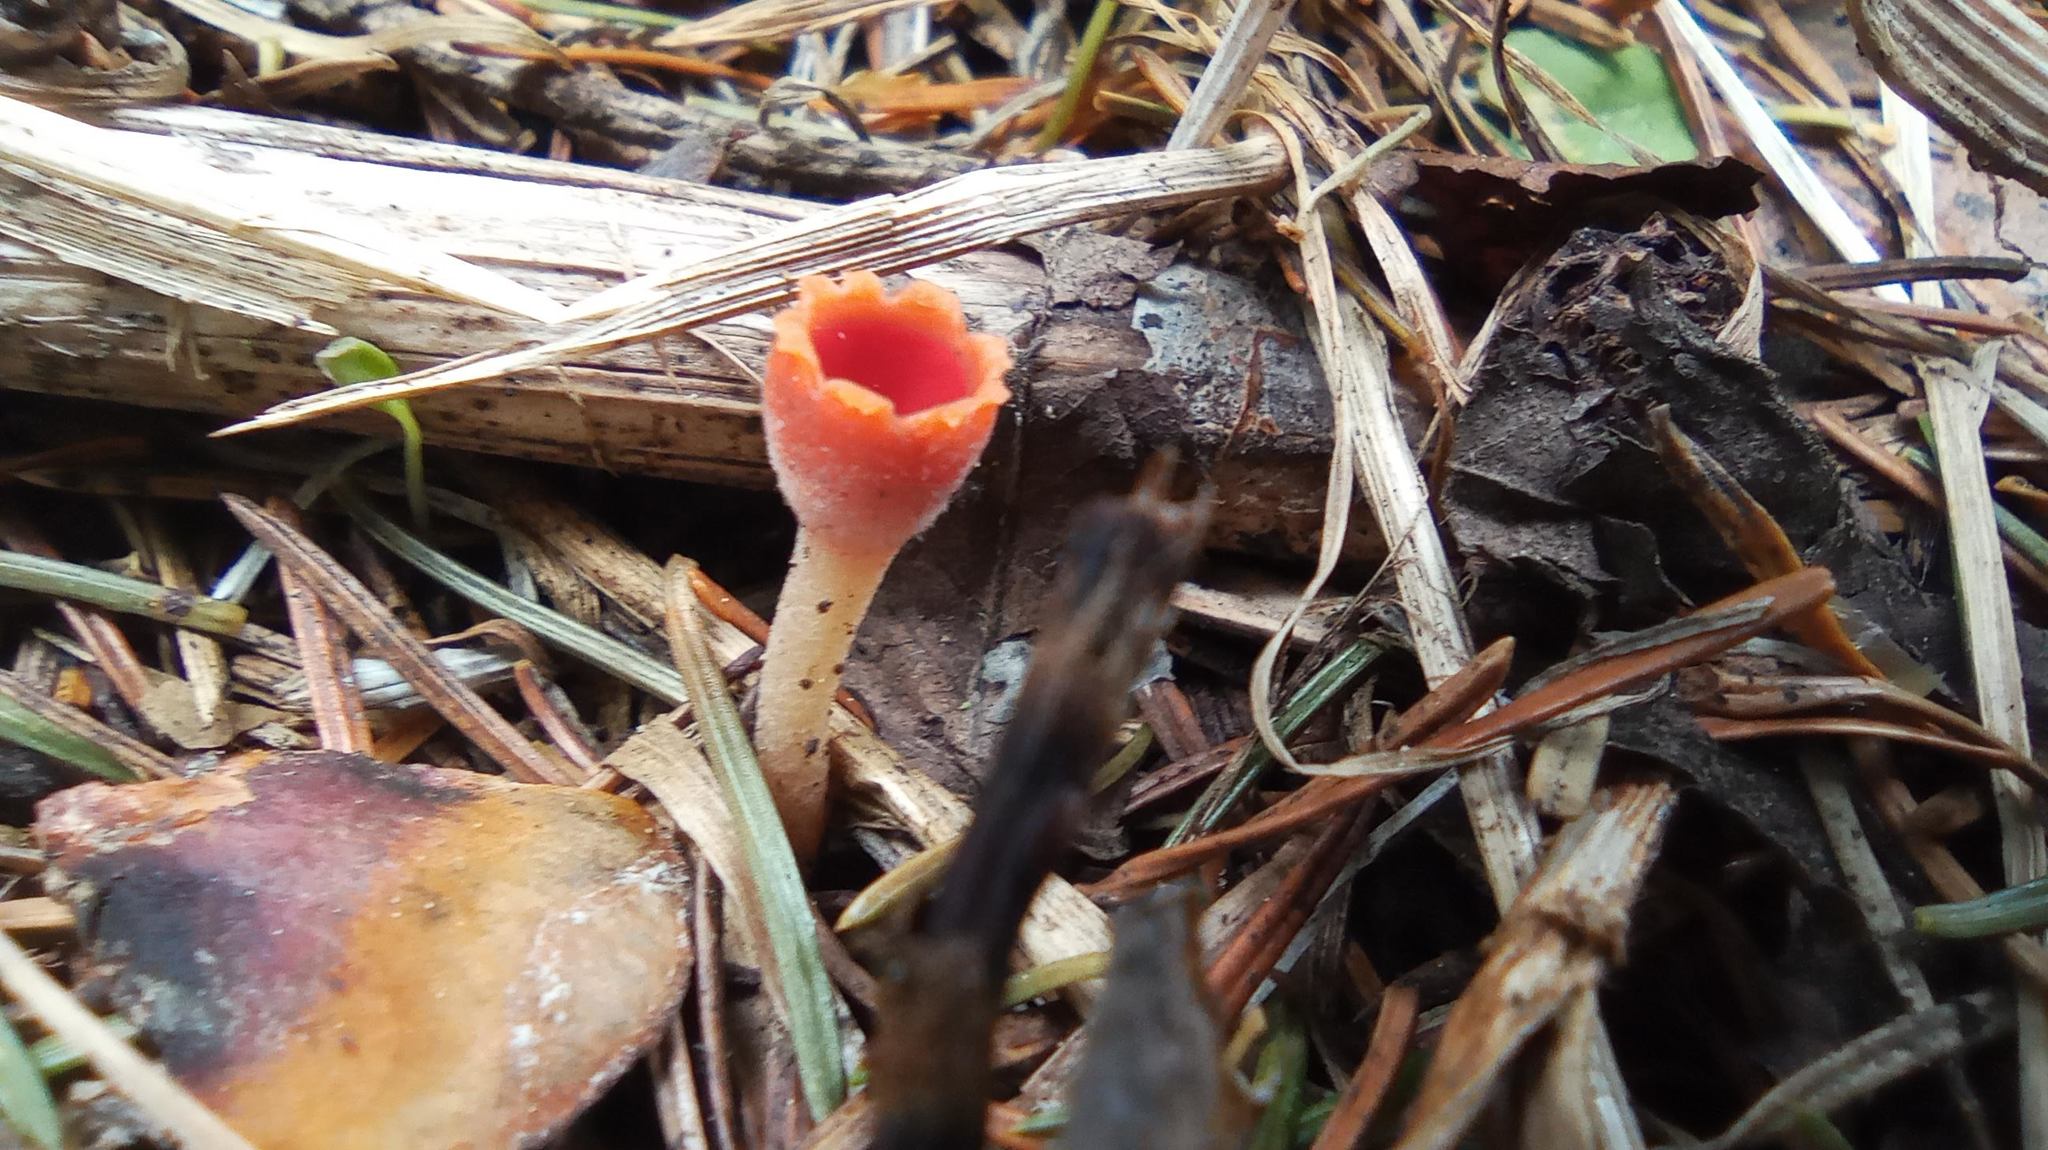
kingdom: Fungi
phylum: Ascomycota
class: Pezizomycetes
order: Pezizales
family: Sarcoscyphaceae
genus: Microstoma
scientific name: Microstoma protractum
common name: Rosy goblet
